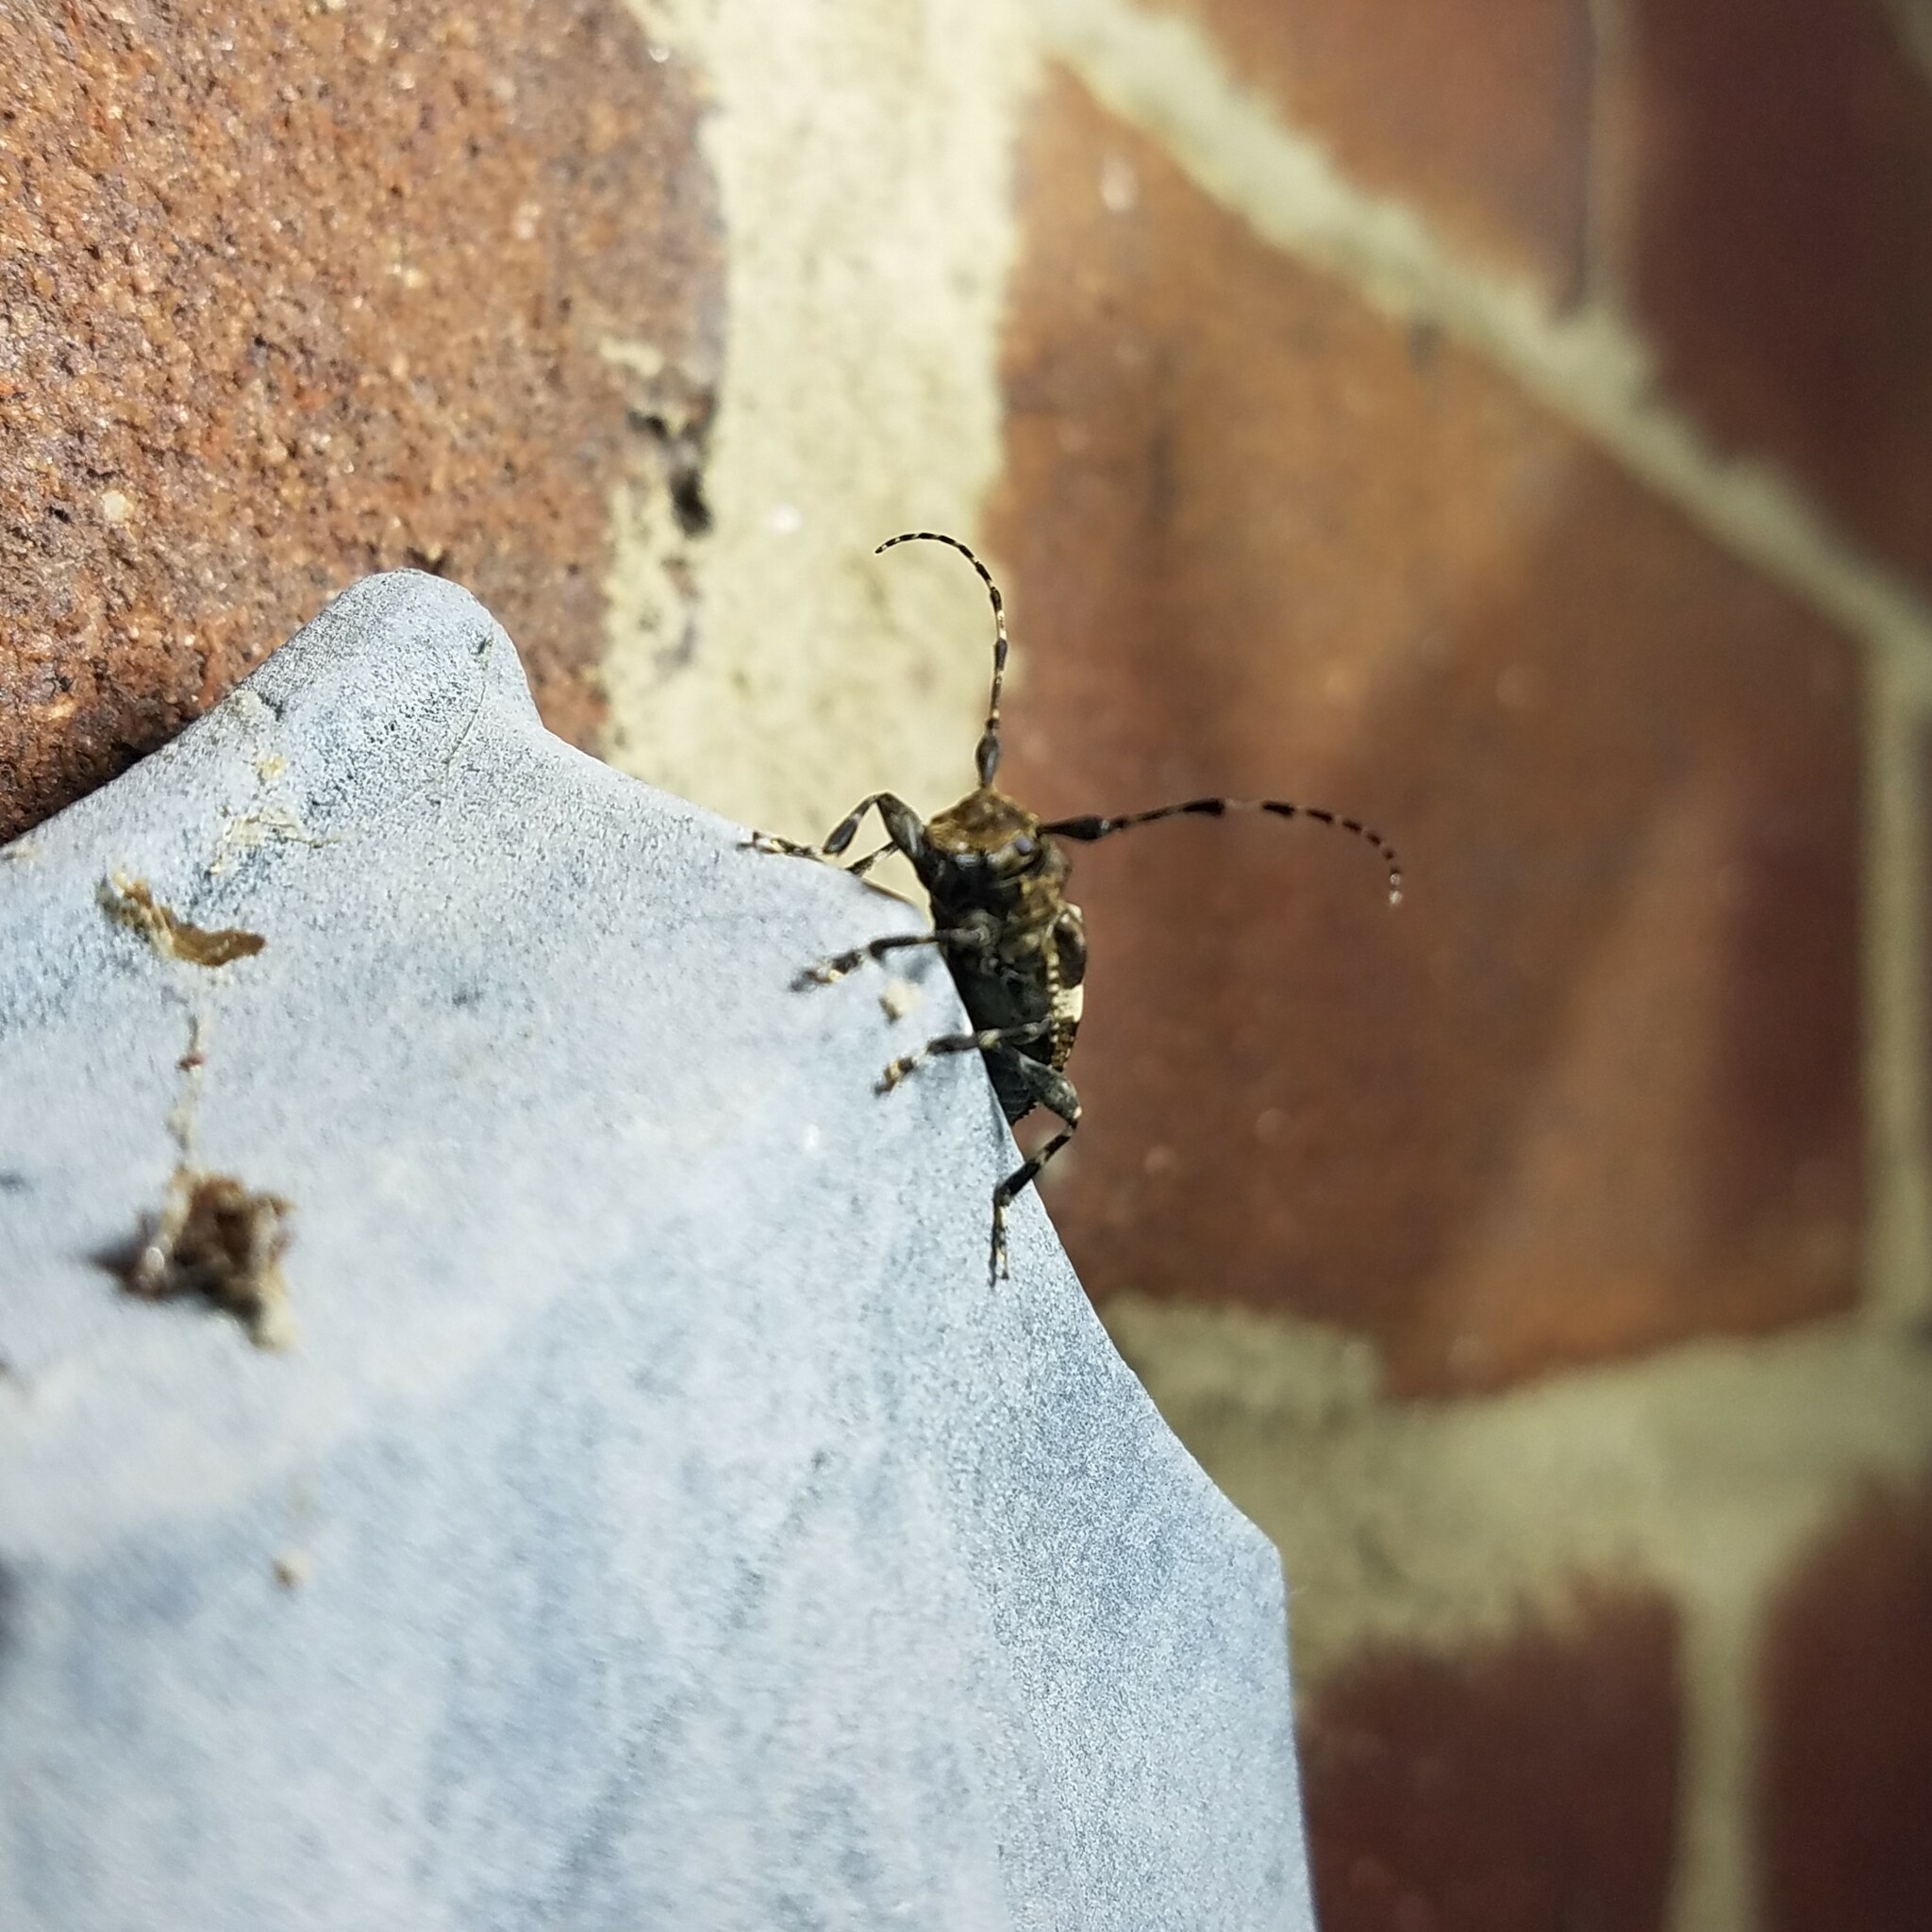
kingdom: Animalia
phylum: Arthropoda
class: Insecta
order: Coleoptera
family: Cerambycidae
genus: Acanthoderes
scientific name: Acanthoderes quadrigibba
